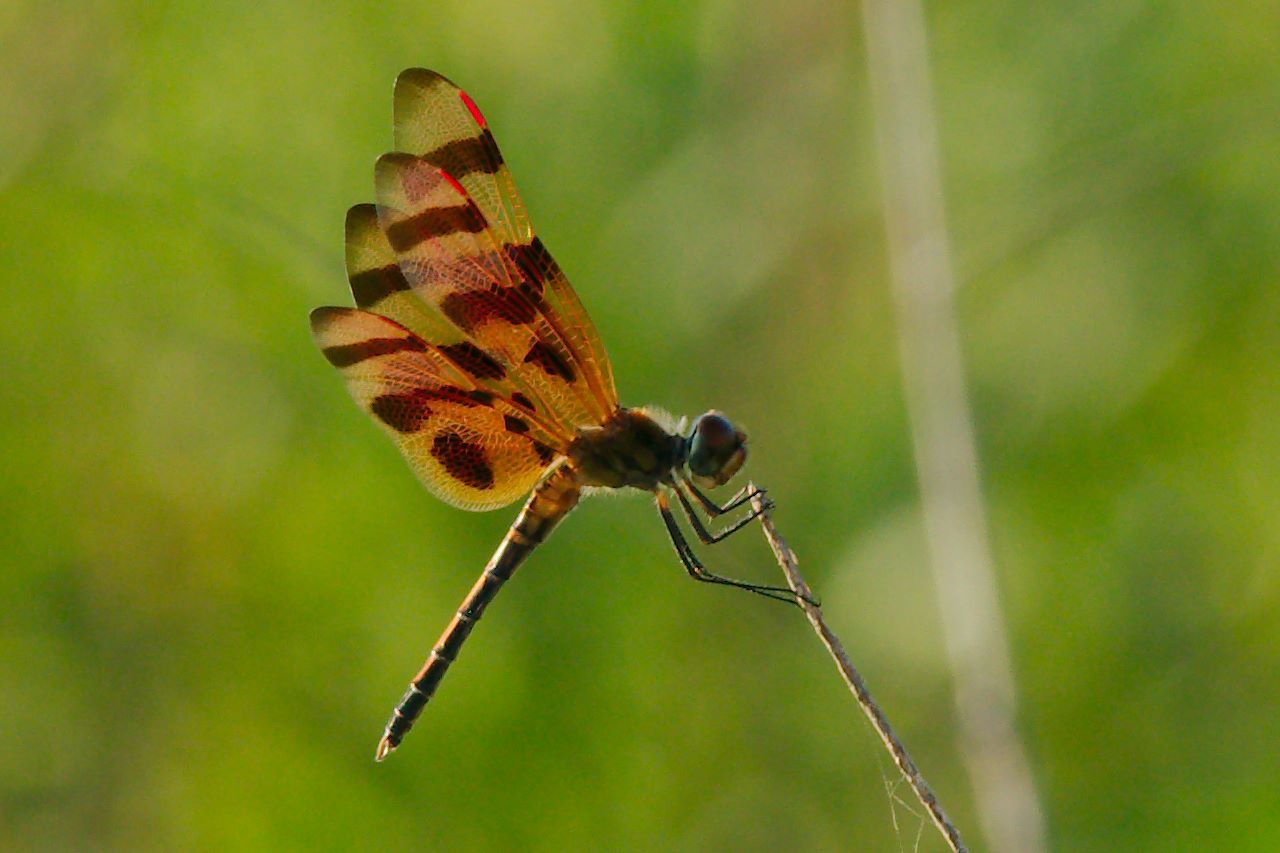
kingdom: Animalia
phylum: Arthropoda
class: Insecta
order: Odonata
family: Libellulidae
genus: Celithemis
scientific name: Celithemis eponina
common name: Halloween pennant
